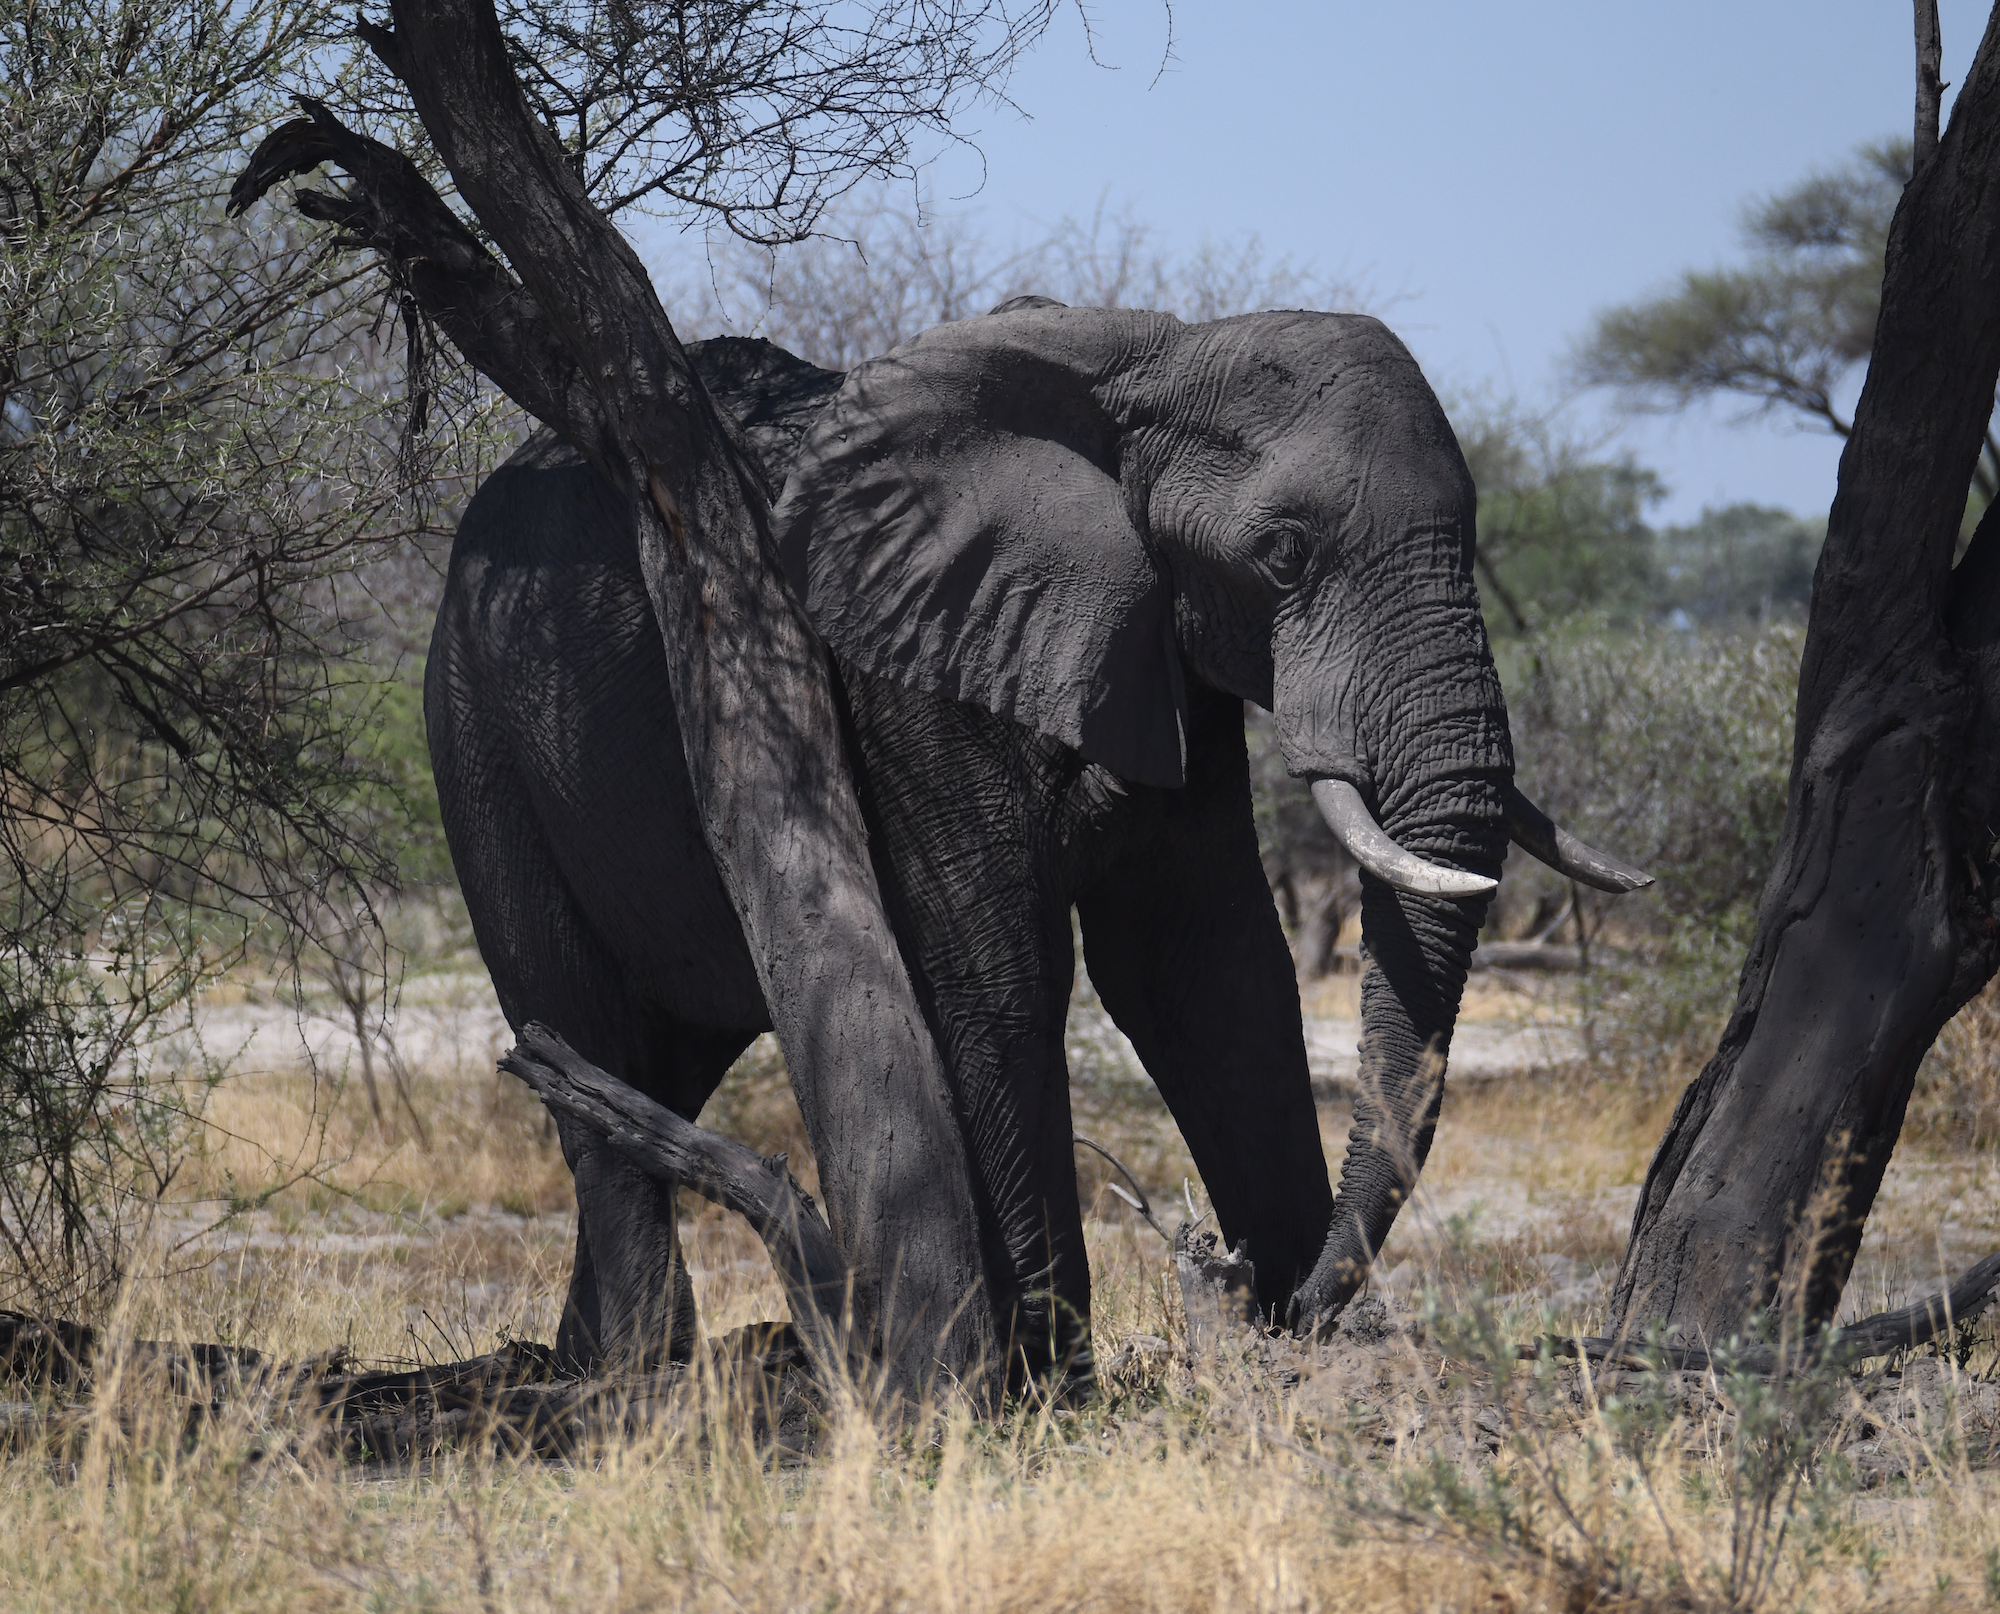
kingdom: Animalia
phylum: Chordata
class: Mammalia
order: Proboscidea
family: Elephantidae
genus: Loxodonta
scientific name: Loxodonta africana
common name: African elephant
